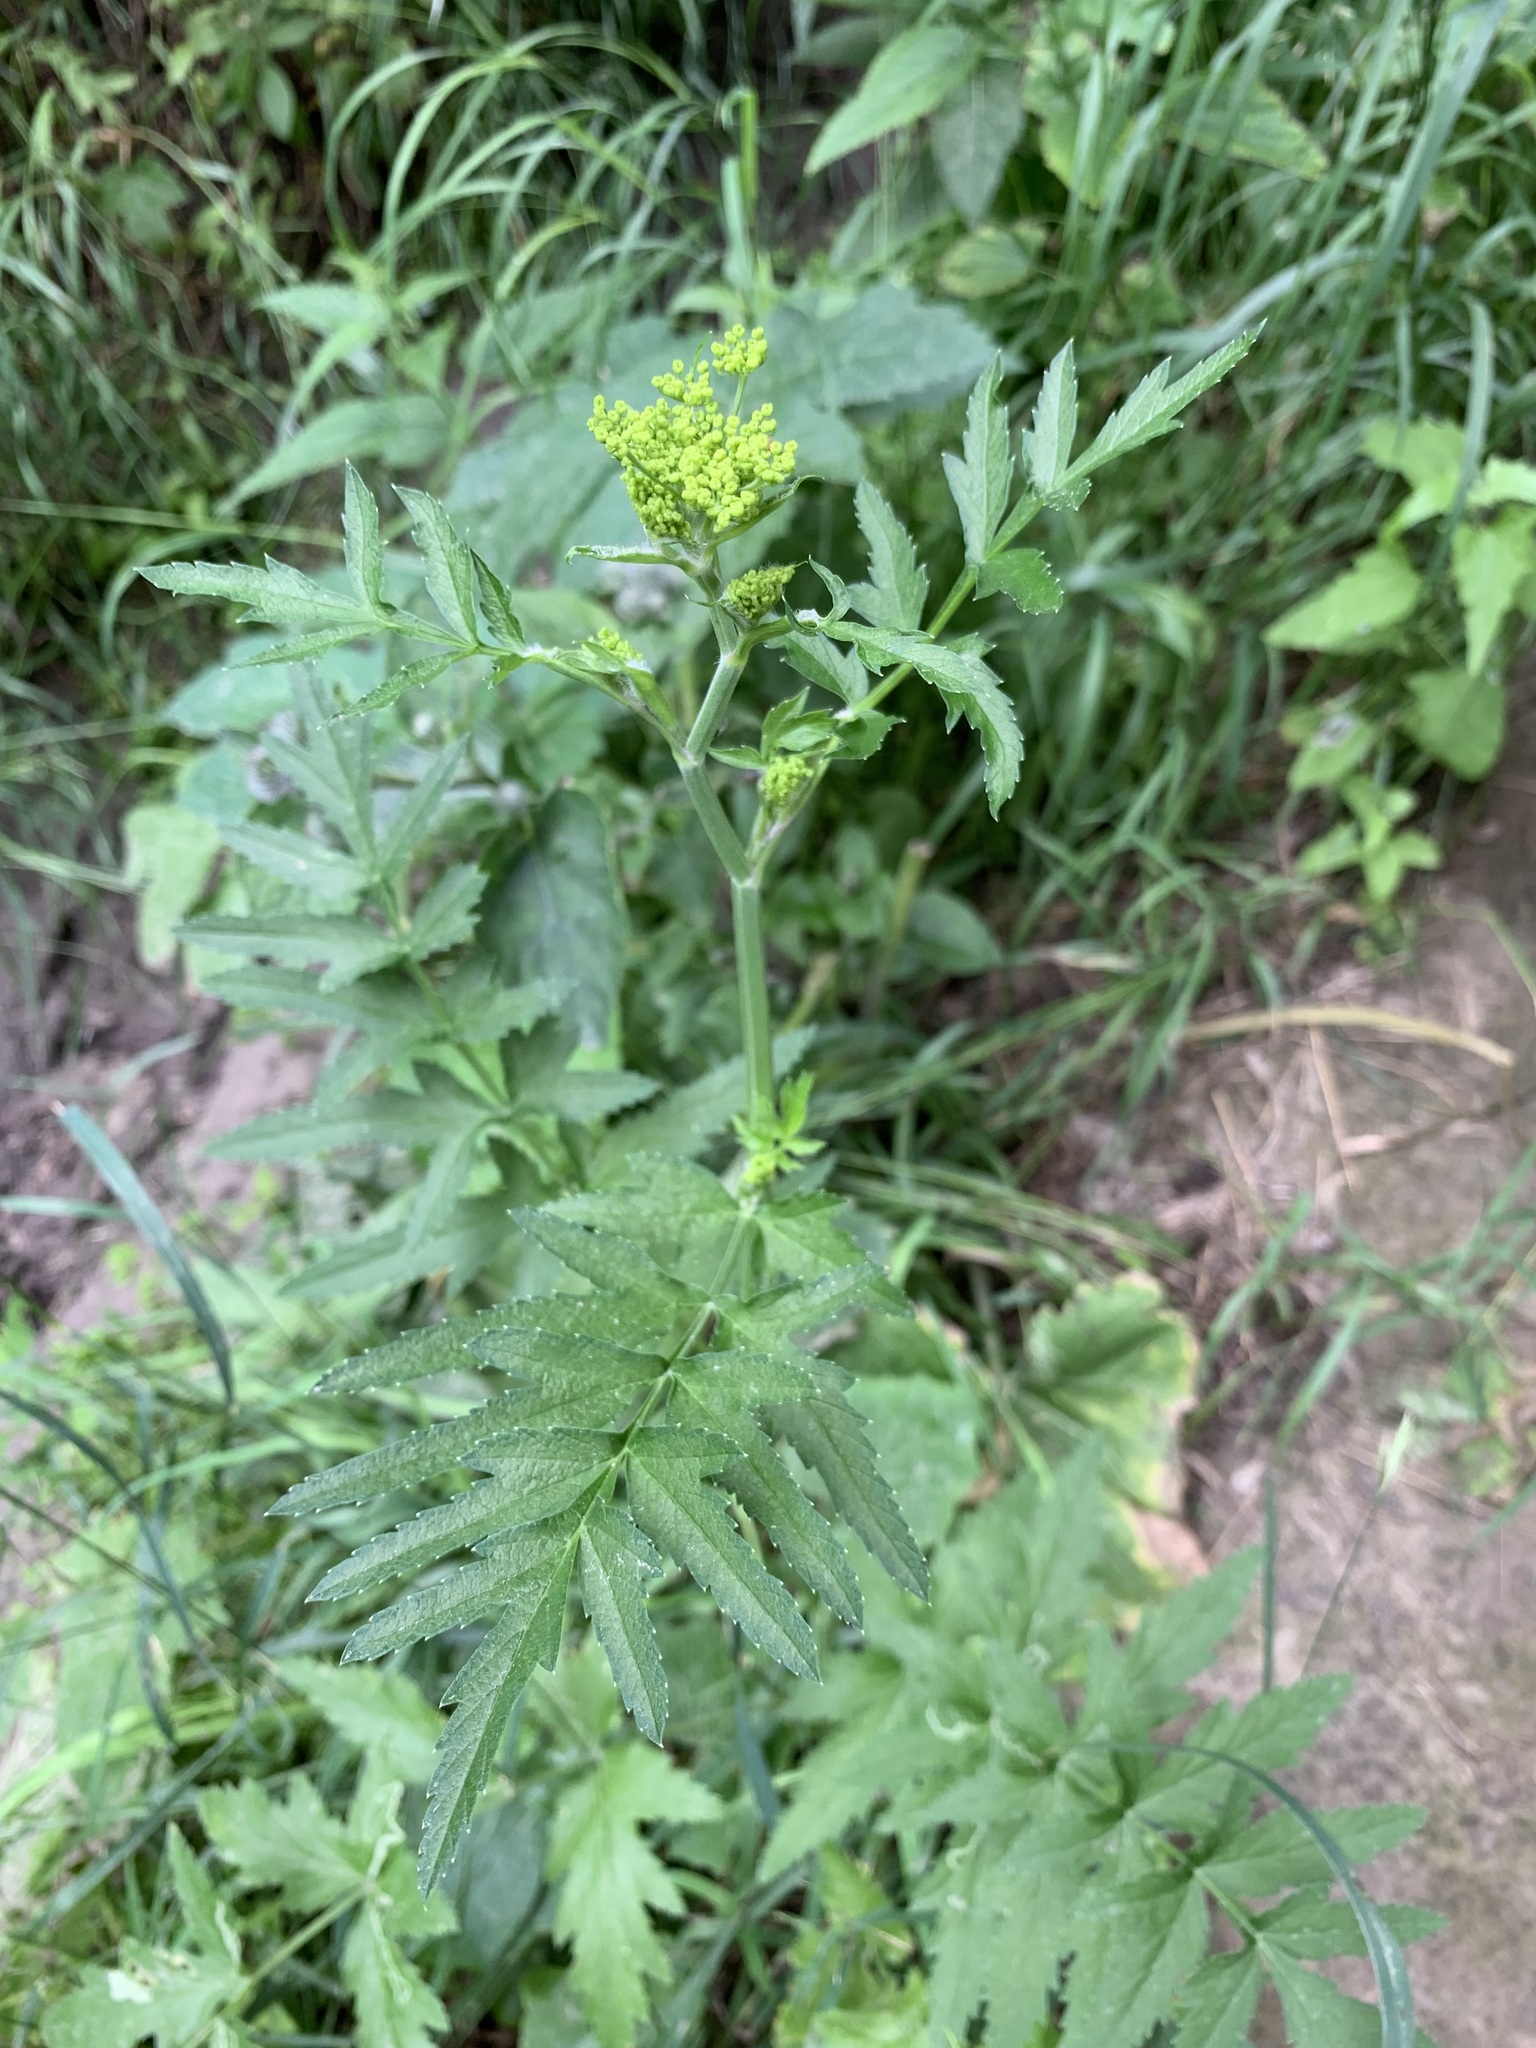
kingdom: Plantae
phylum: Tracheophyta
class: Magnoliopsida
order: Apiales
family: Apiaceae
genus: Pastinaca
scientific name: Pastinaca sativa
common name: Wild parsnip
